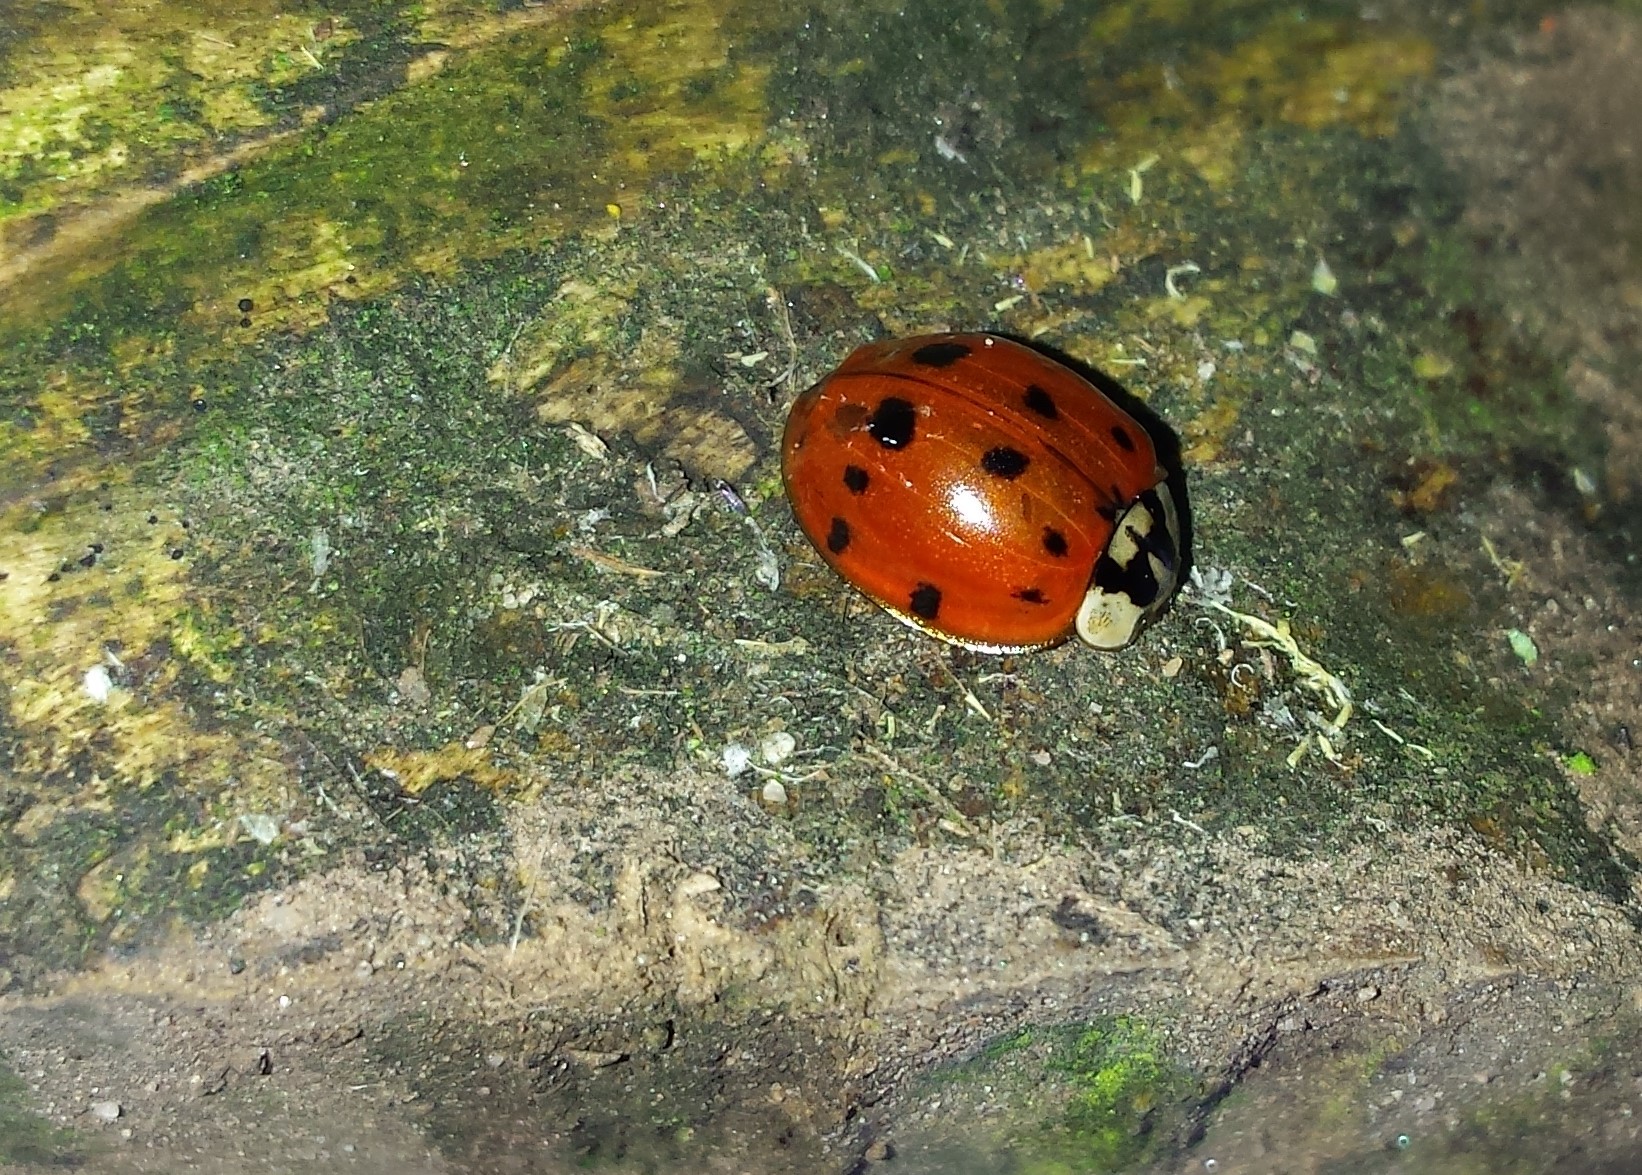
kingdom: Animalia
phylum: Arthropoda
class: Insecta
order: Coleoptera
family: Coccinellidae
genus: Harmonia
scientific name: Harmonia axyridis
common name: Harlequin ladybird
